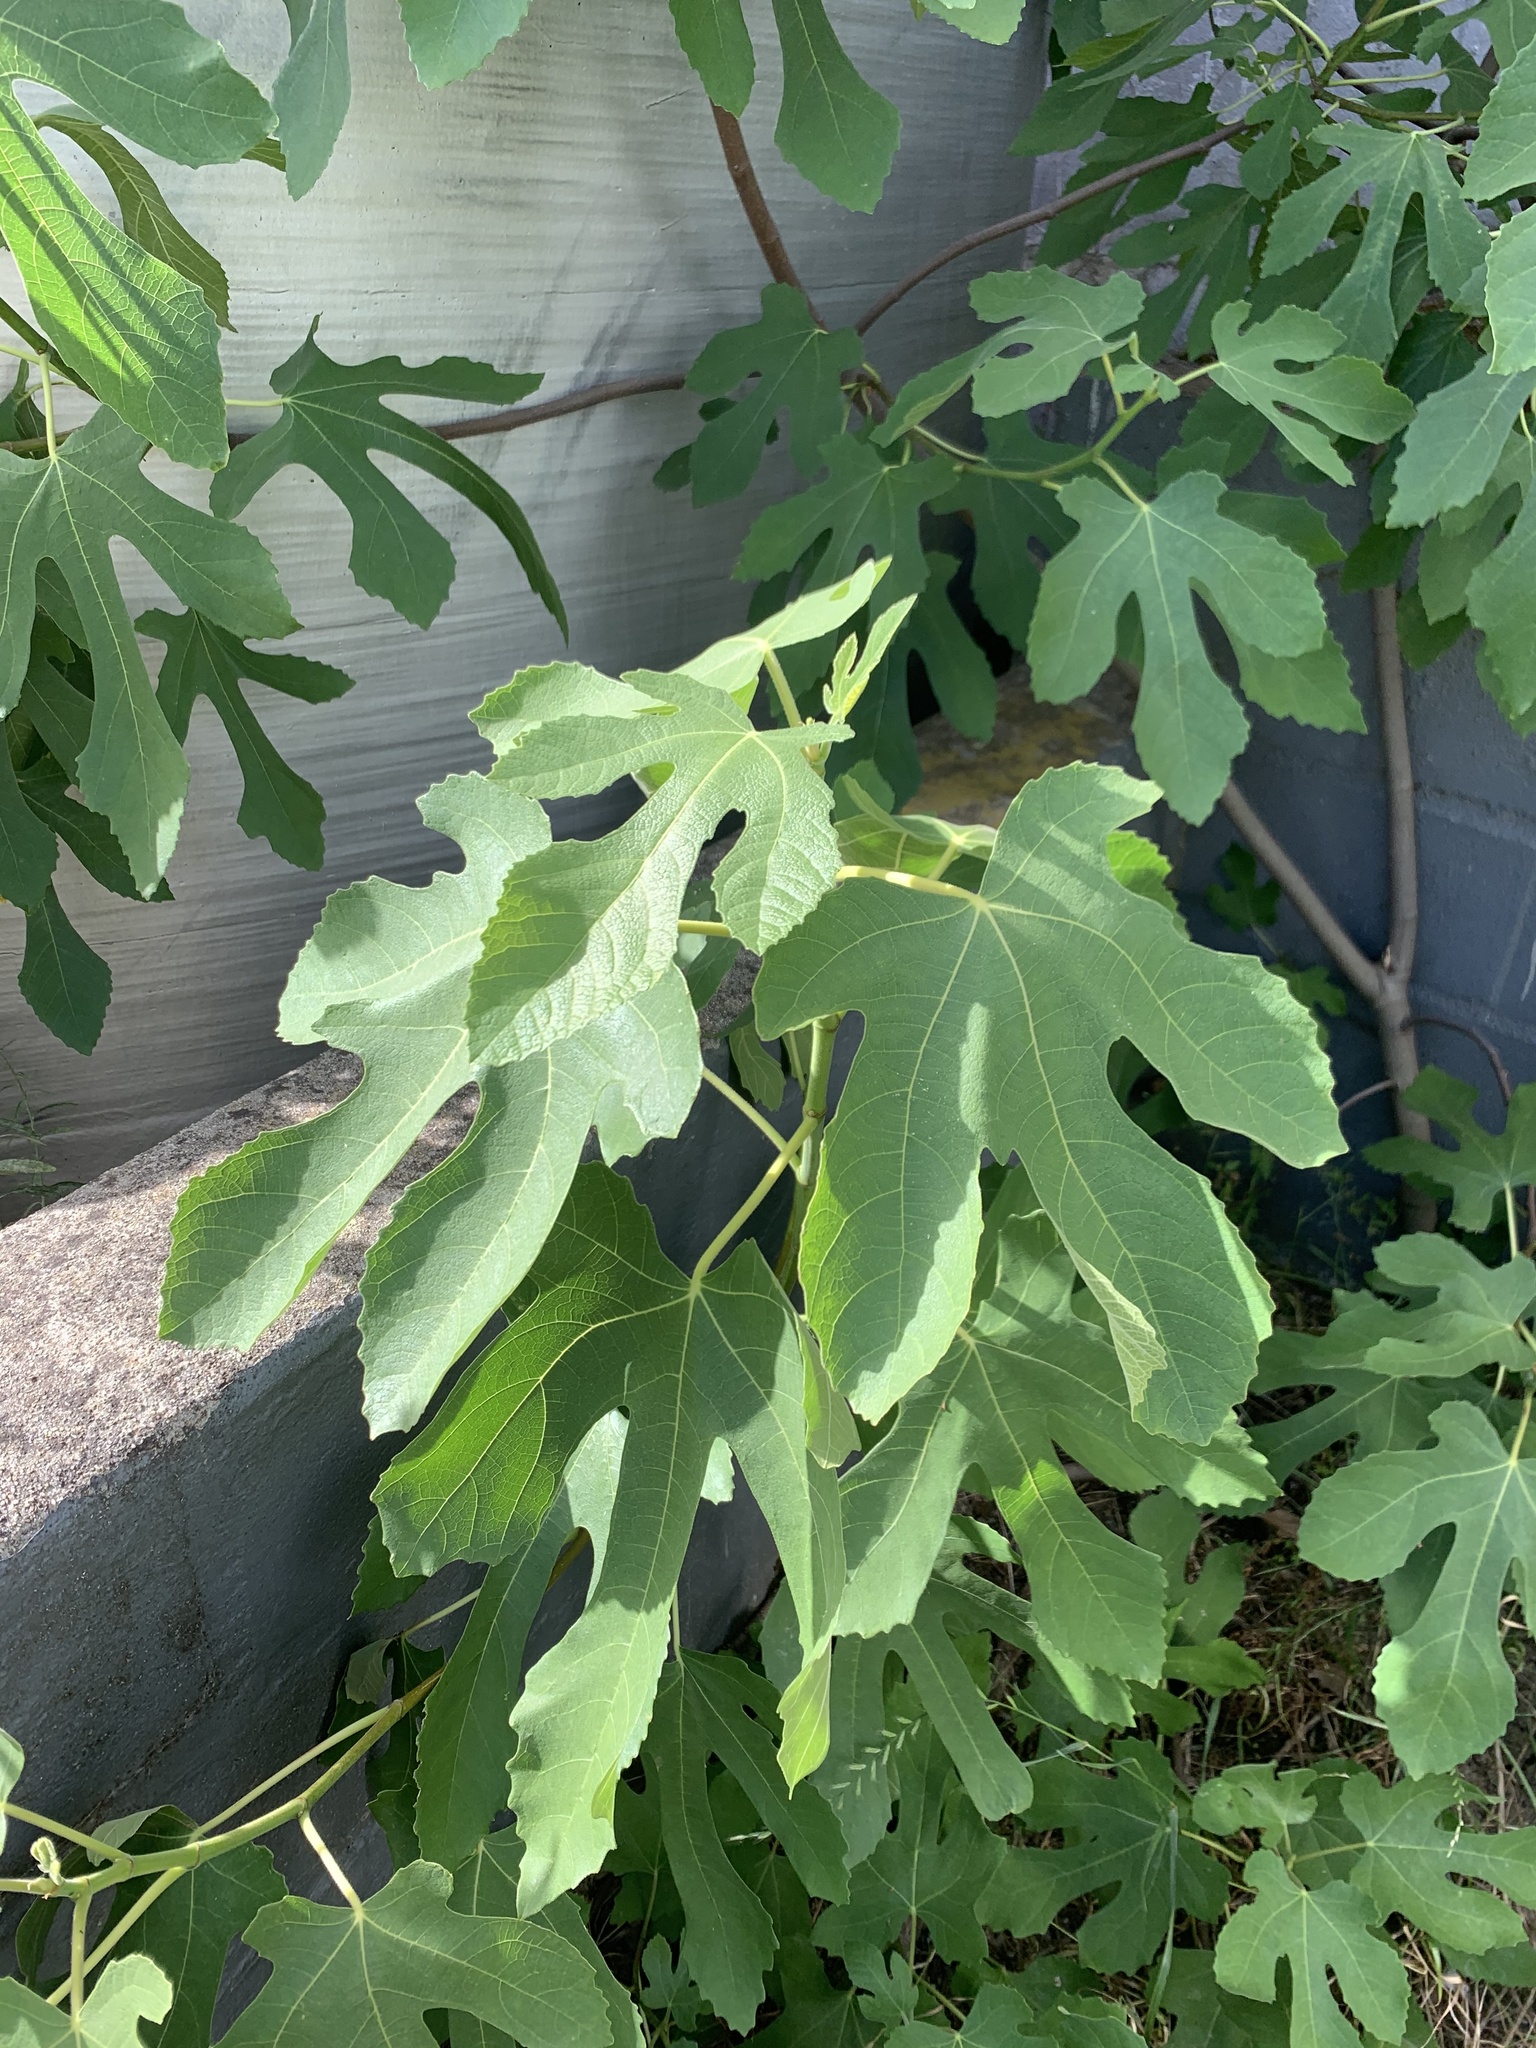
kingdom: Plantae
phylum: Tracheophyta
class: Magnoliopsida
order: Rosales
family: Moraceae
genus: Ficus
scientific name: Ficus carica
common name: Fig
